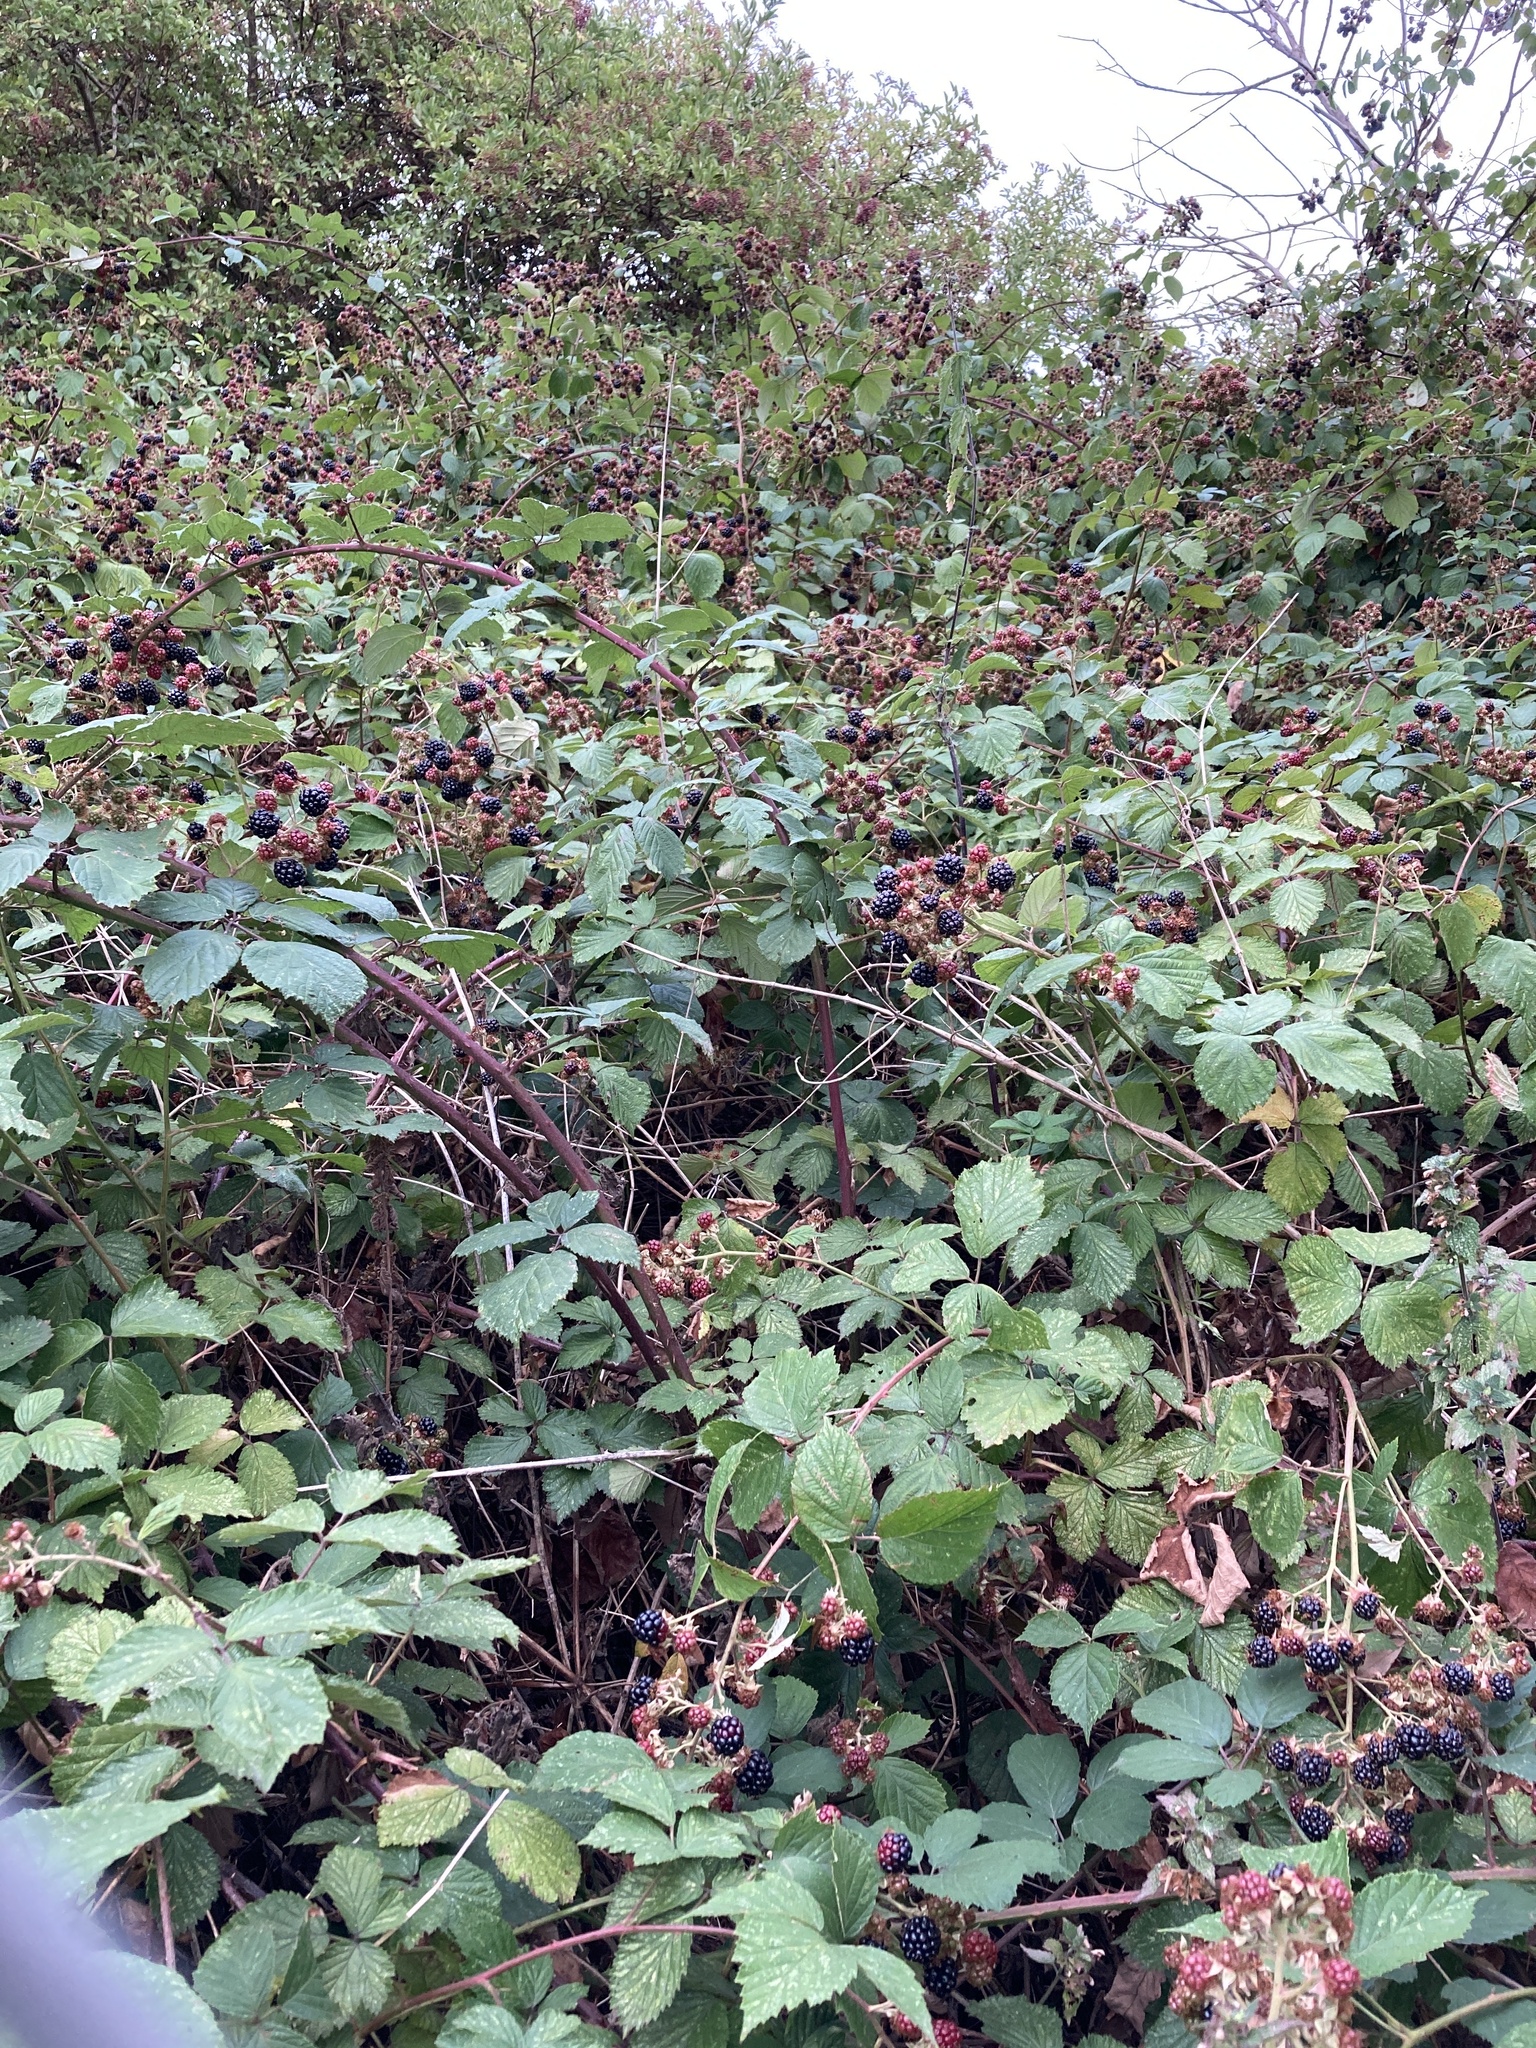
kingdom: Plantae
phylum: Tracheophyta
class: Magnoliopsida
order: Rosales
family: Rosaceae
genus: Rubus
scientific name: Rubus
